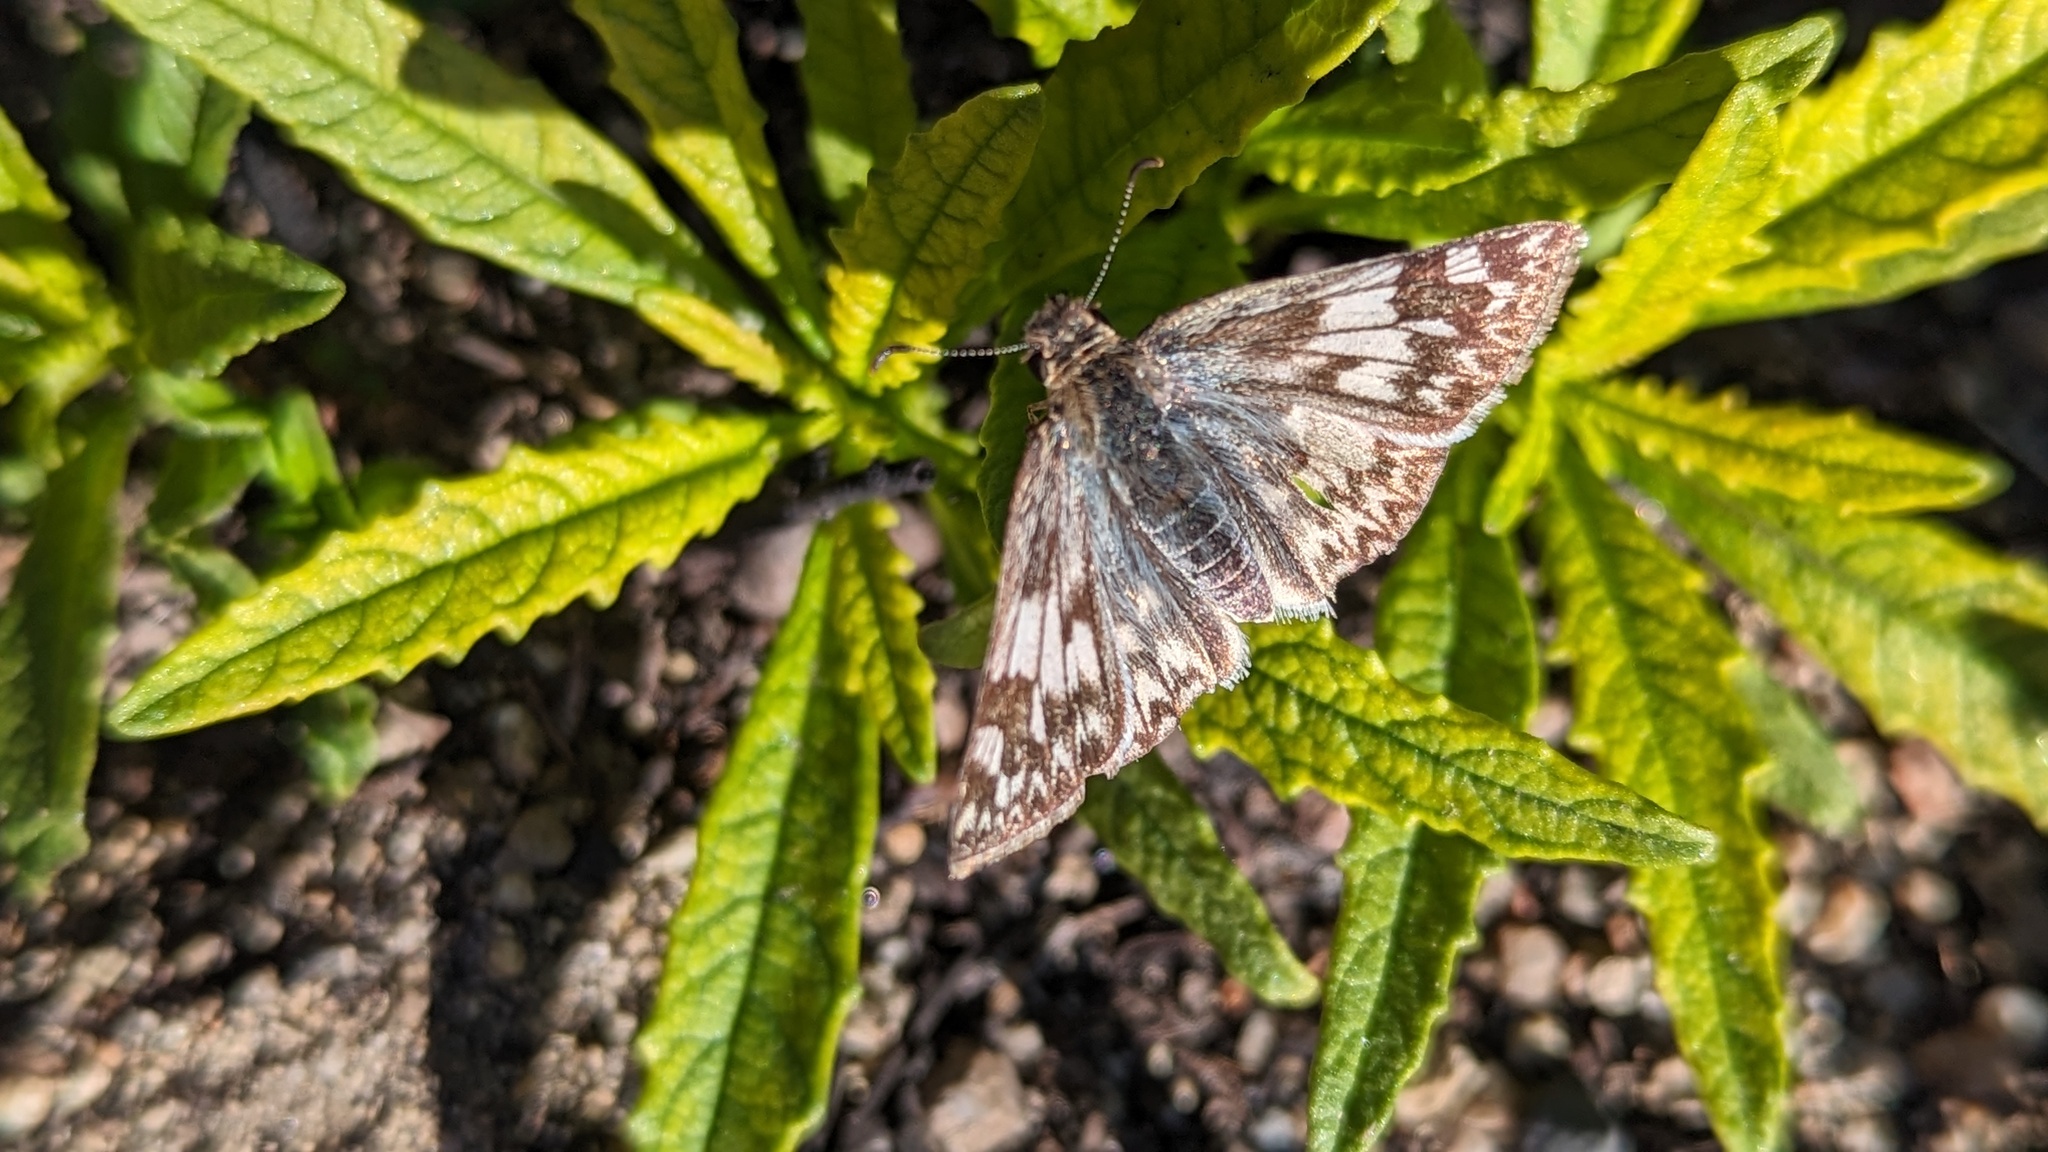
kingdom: Animalia
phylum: Arthropoda
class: Insecta
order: Lepidoptera
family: Hesperiidae
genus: Heliopetes
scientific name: Heliopetes ericetorum
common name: Northern white-skipper
